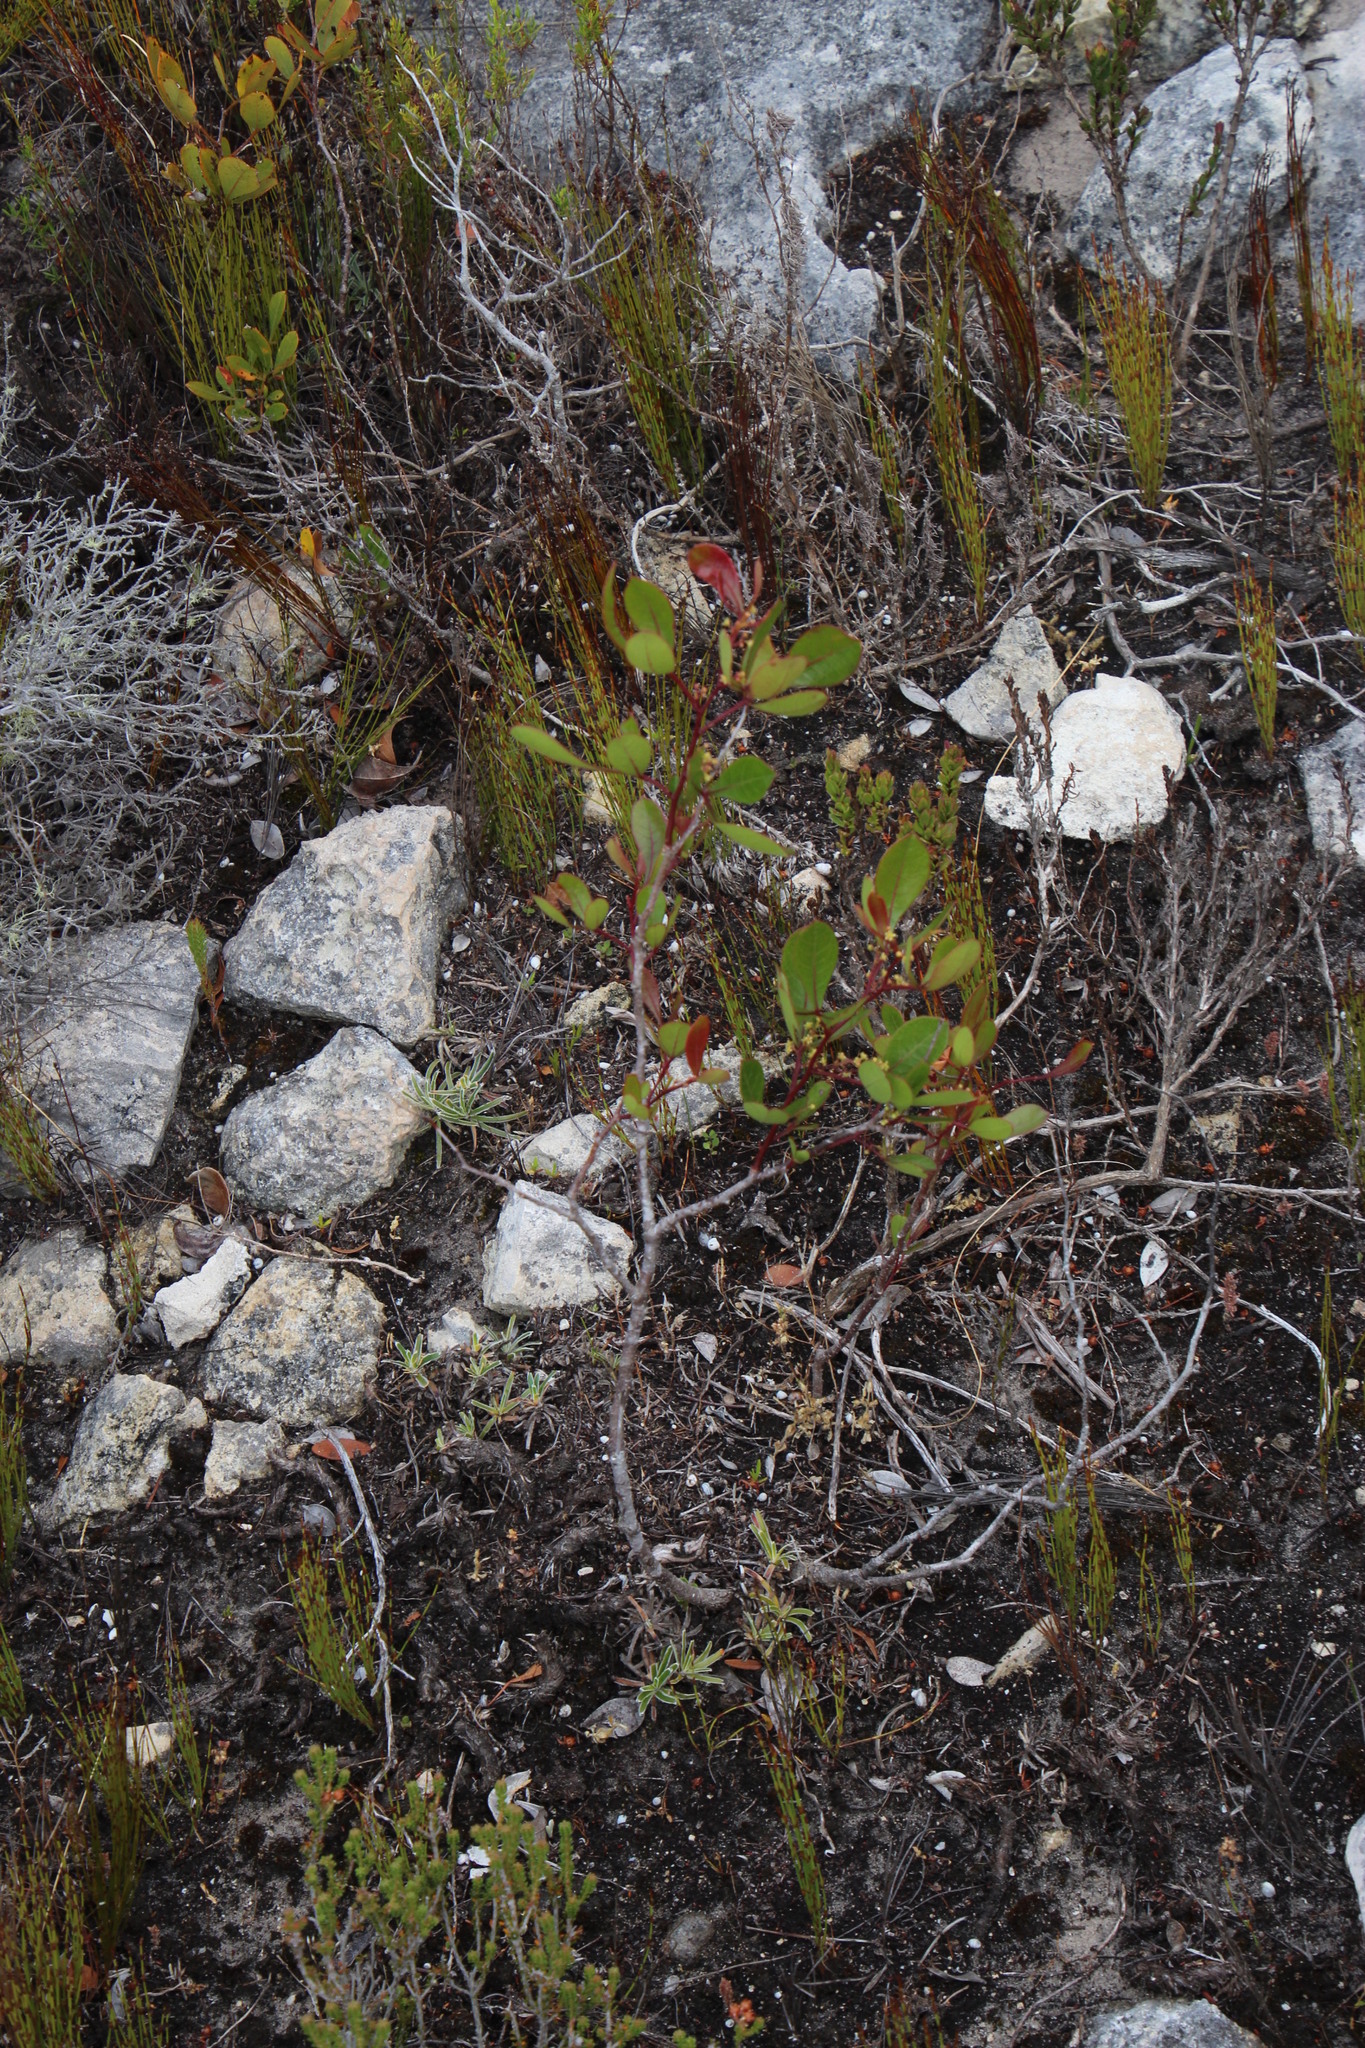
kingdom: Plantae
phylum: Tracheophyta
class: Magnoliopsida
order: Sapindales
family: Anacardiaceae
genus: Searsia
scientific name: Searsia laevigata
